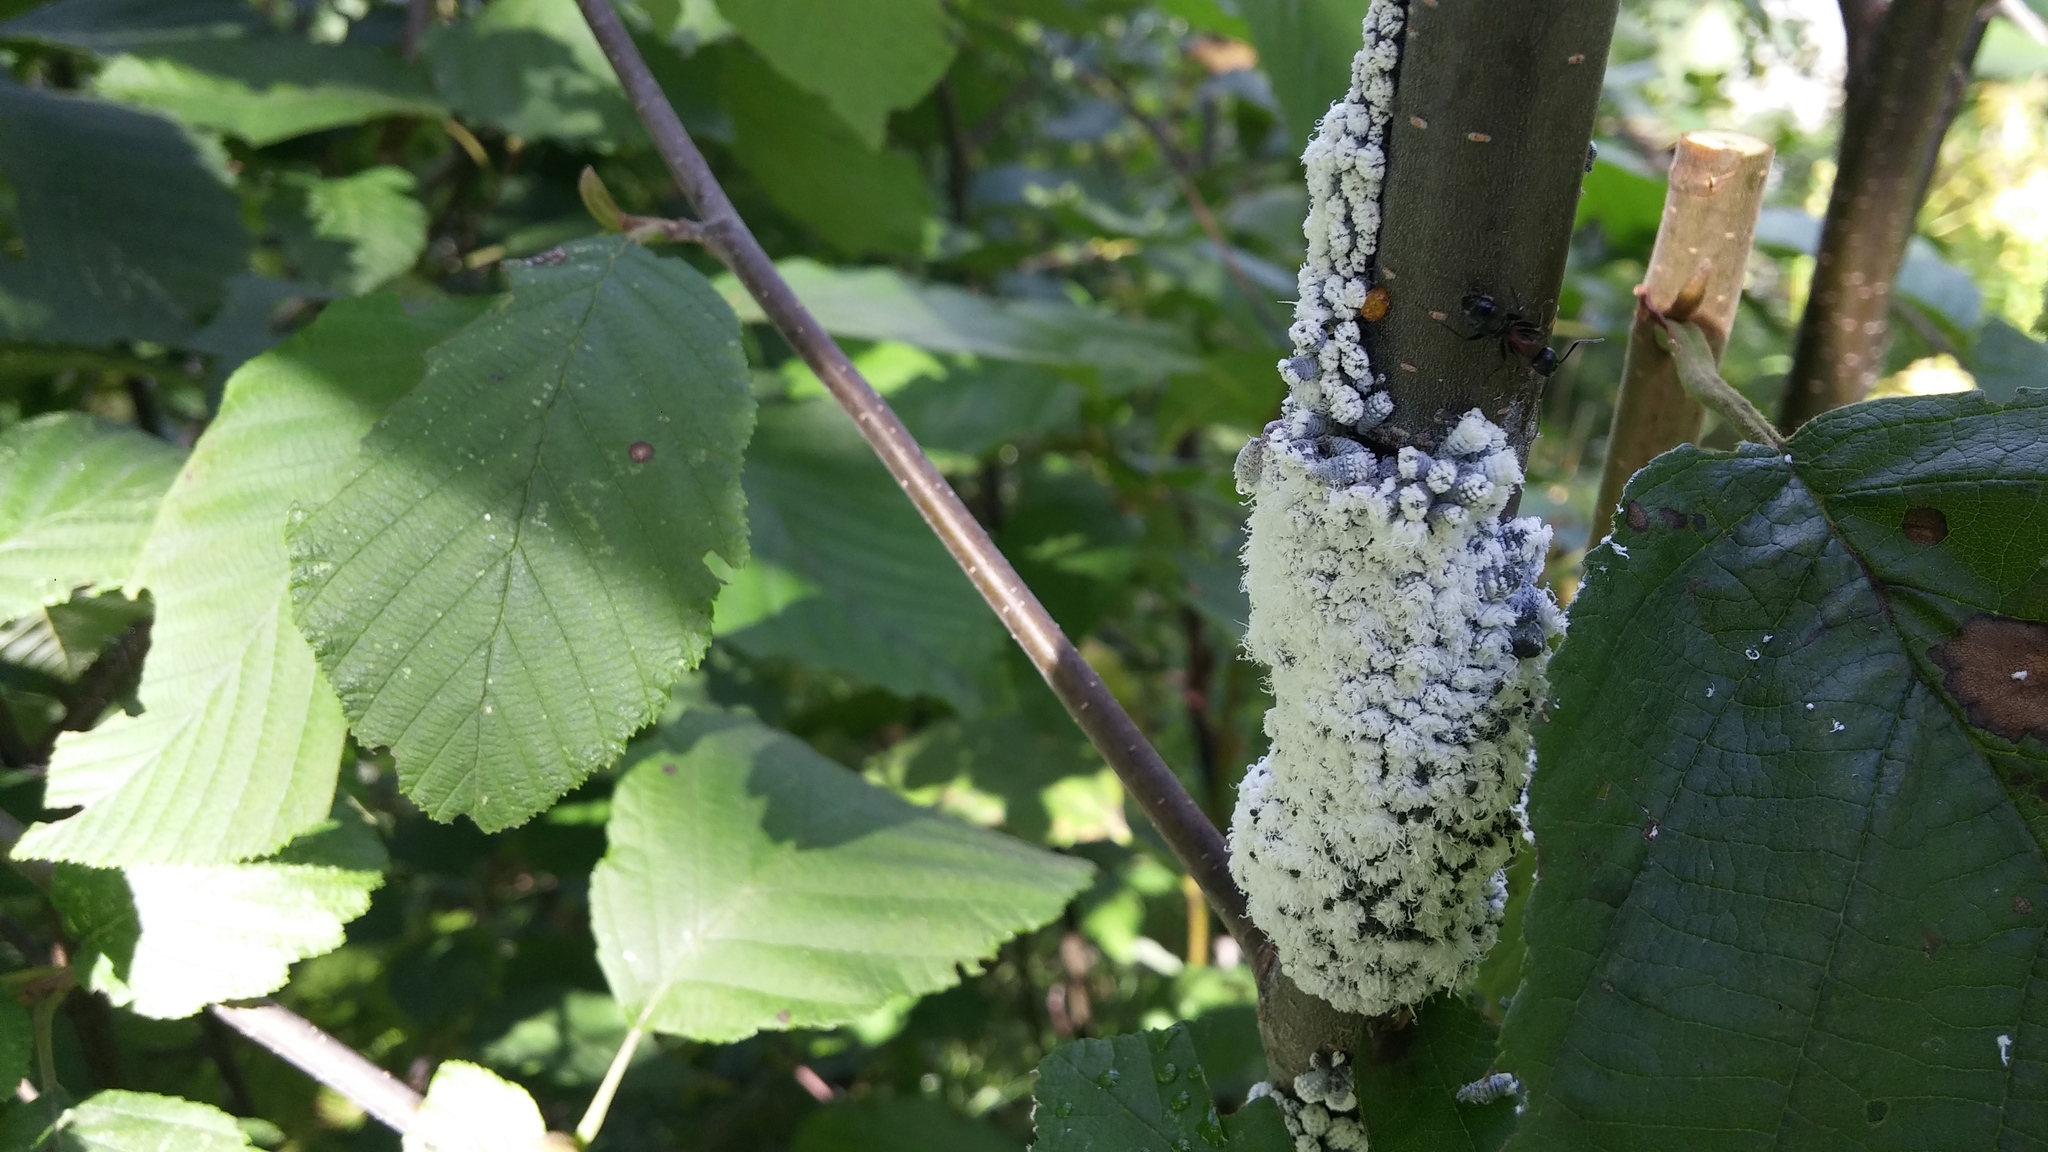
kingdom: Animalia
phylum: Arthropoda
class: Insecta
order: Hemiptera
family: Aphididae
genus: Prociphilus
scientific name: Prociphilus tessellatus
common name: Woolly alder aphid
